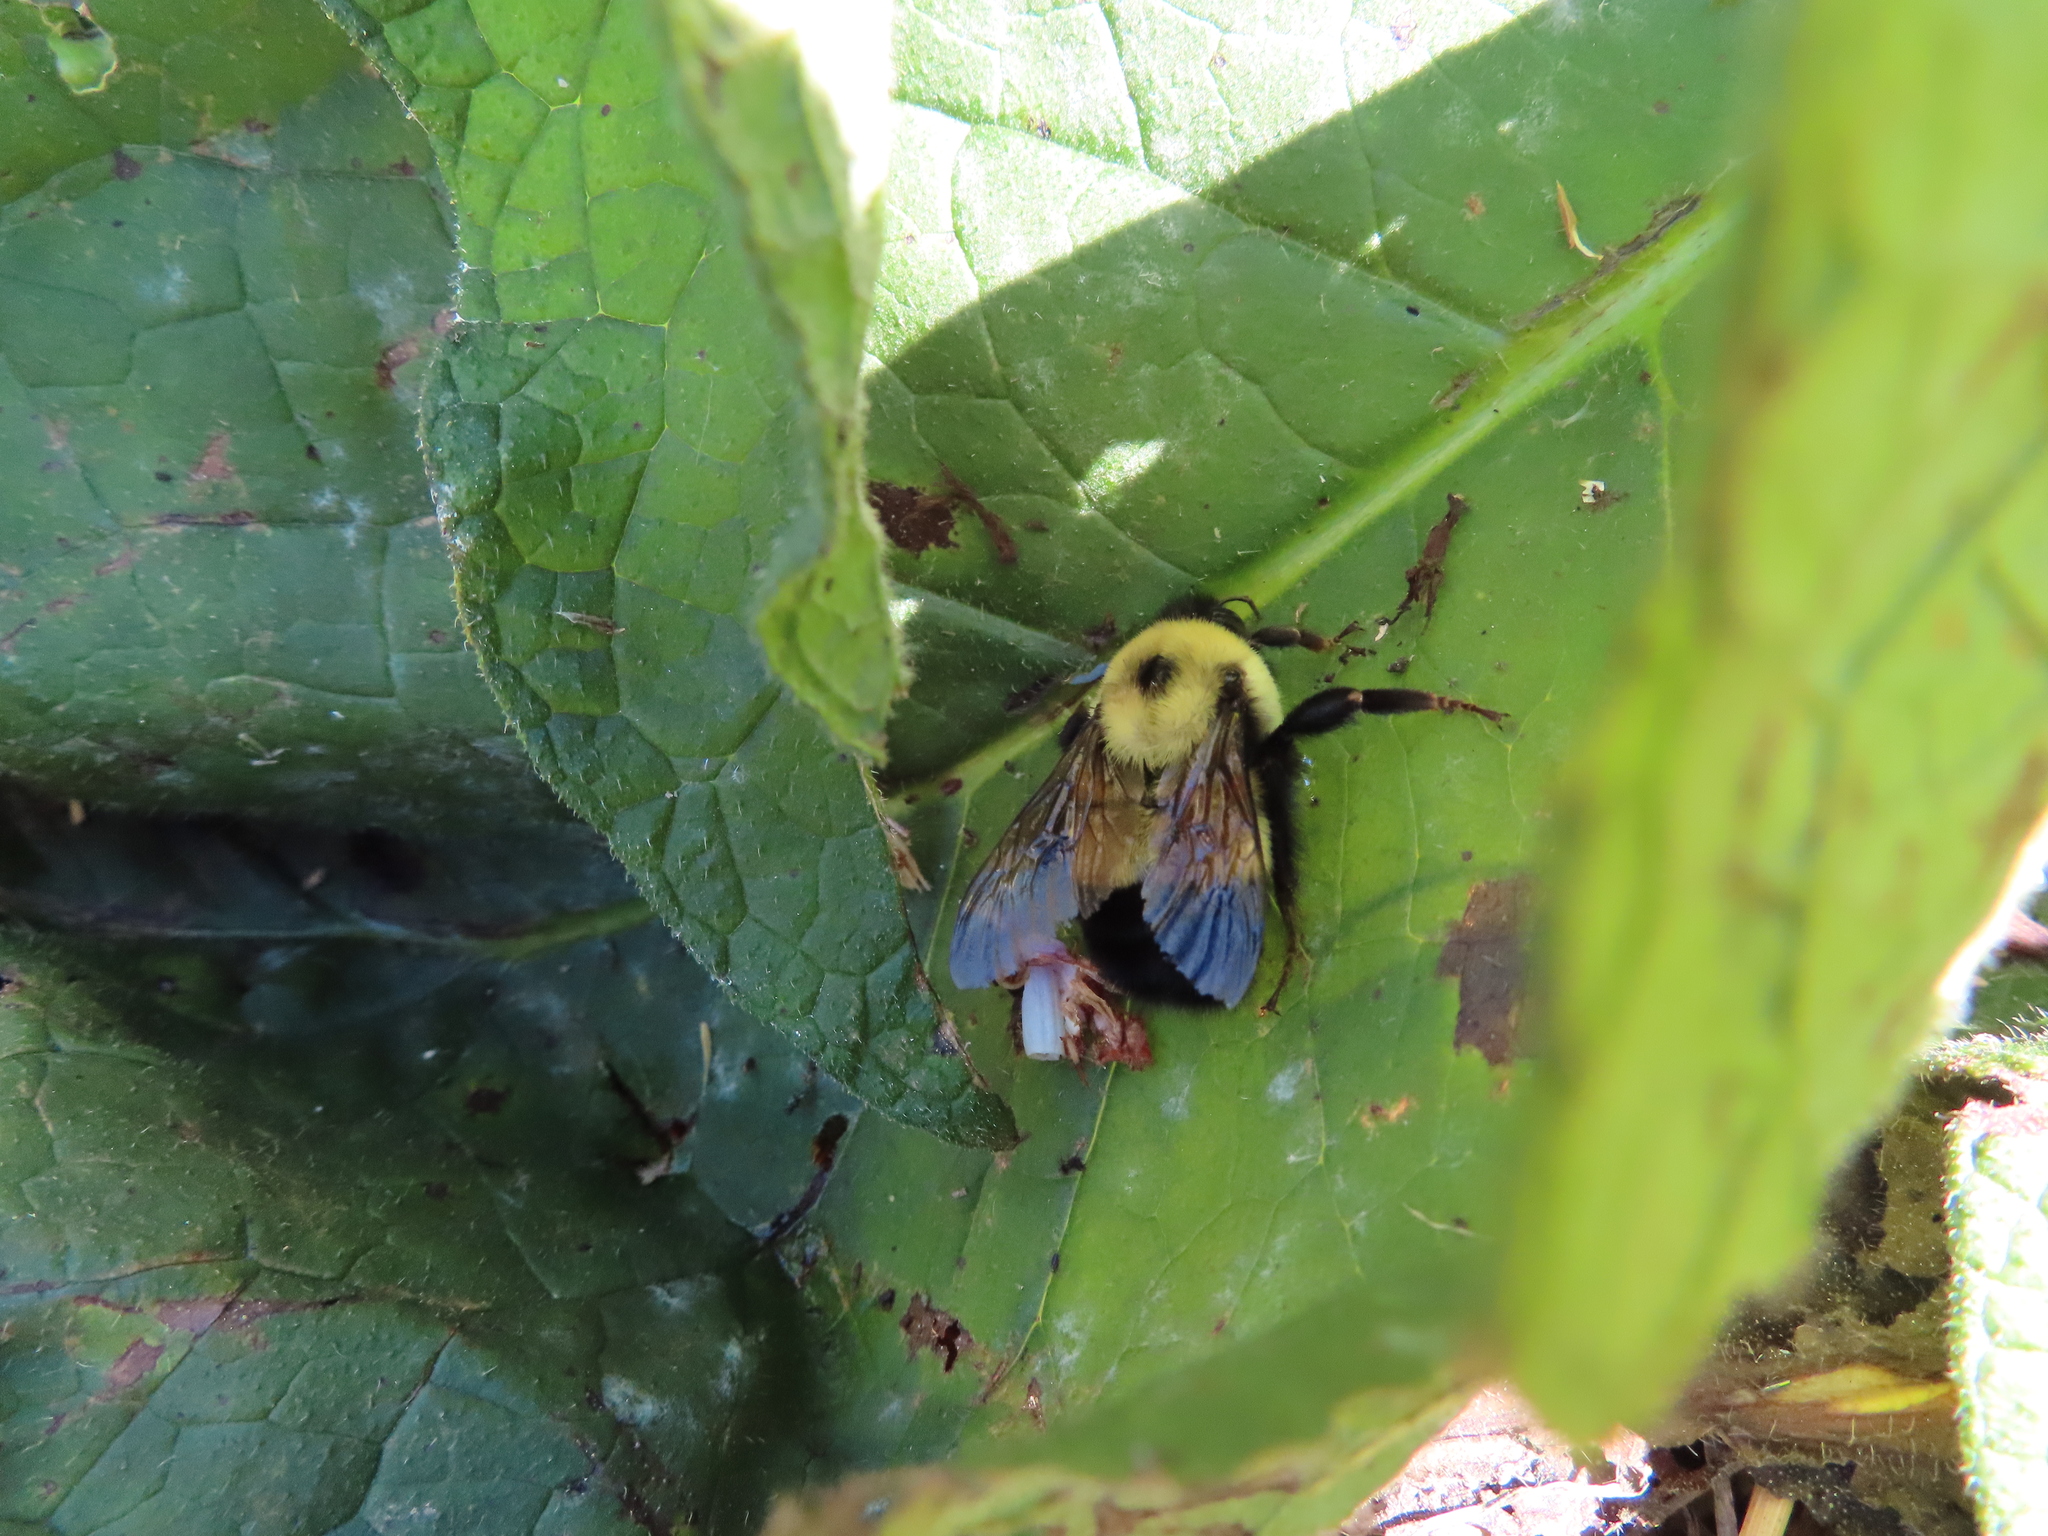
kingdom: Animalia
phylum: Arthropoda
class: Insecta
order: Hymenoptera
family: Apidae
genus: Bombus
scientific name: Bombus affinis
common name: Rusty patched bumble bee
